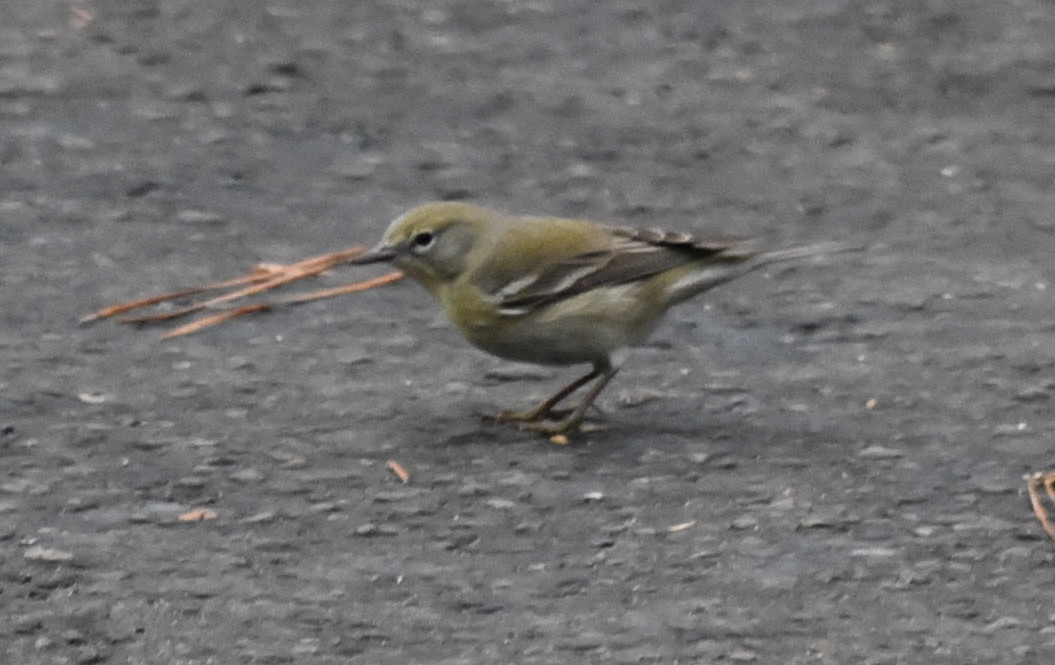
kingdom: Animalia
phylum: Chordata
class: Aves
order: Passeriformes
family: Parulidae
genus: Setophaga
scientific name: Setophaga pinus
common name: Pine warbler
